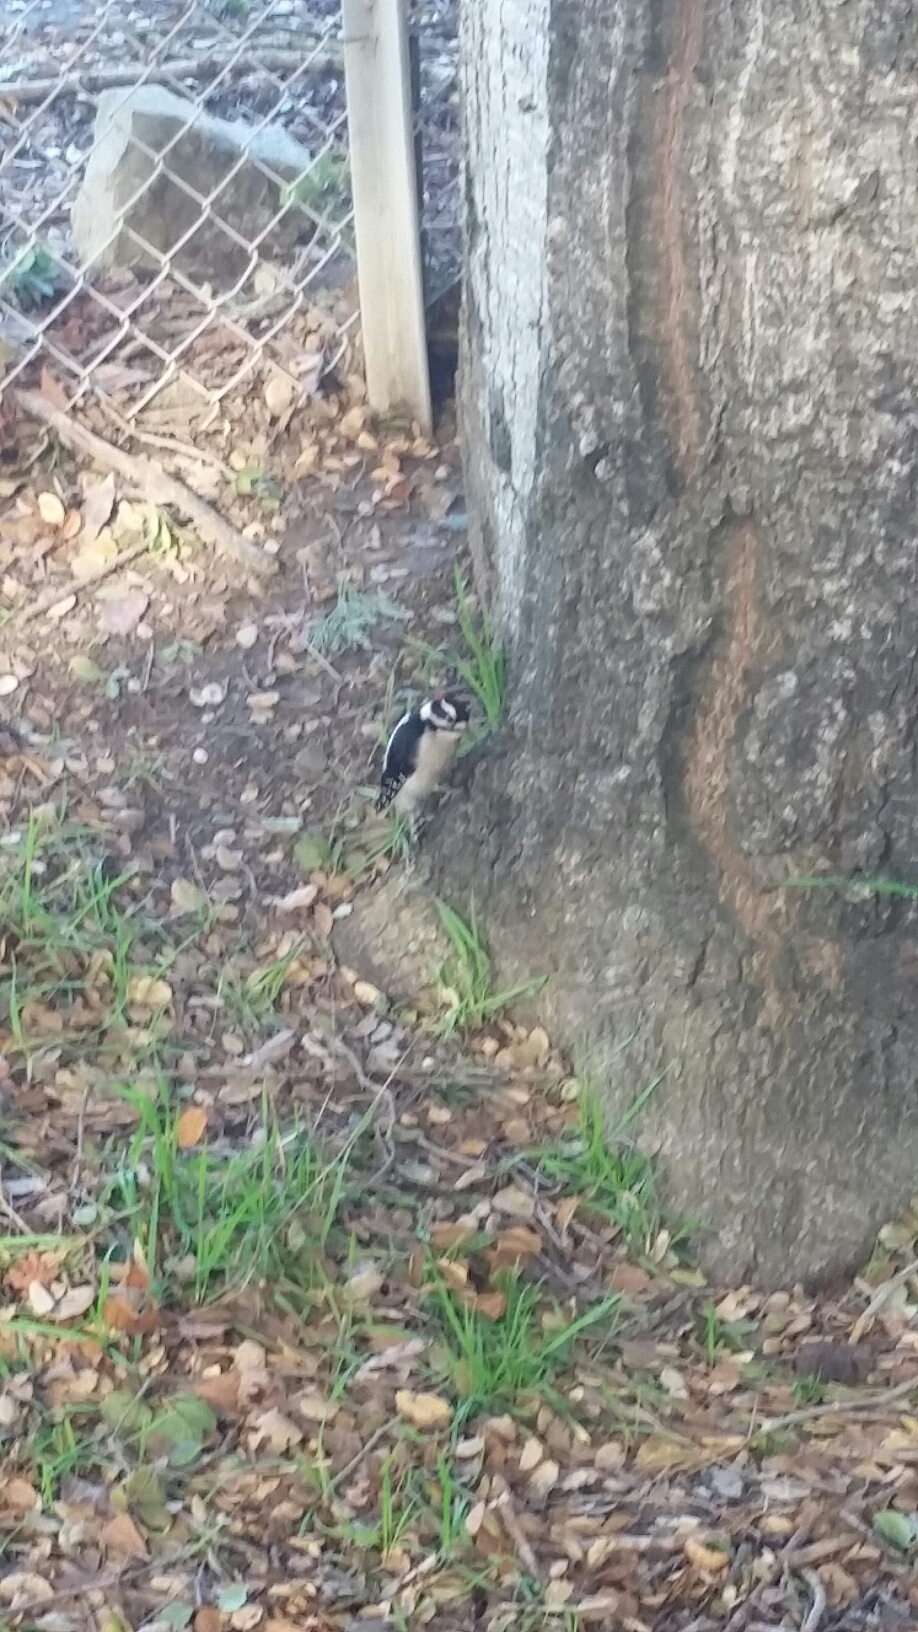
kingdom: Animalia
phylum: Chordata
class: Aves
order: Piciformes
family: Picidae
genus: Dryobates
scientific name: Dryobates pubescens
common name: Downy woodpecker
